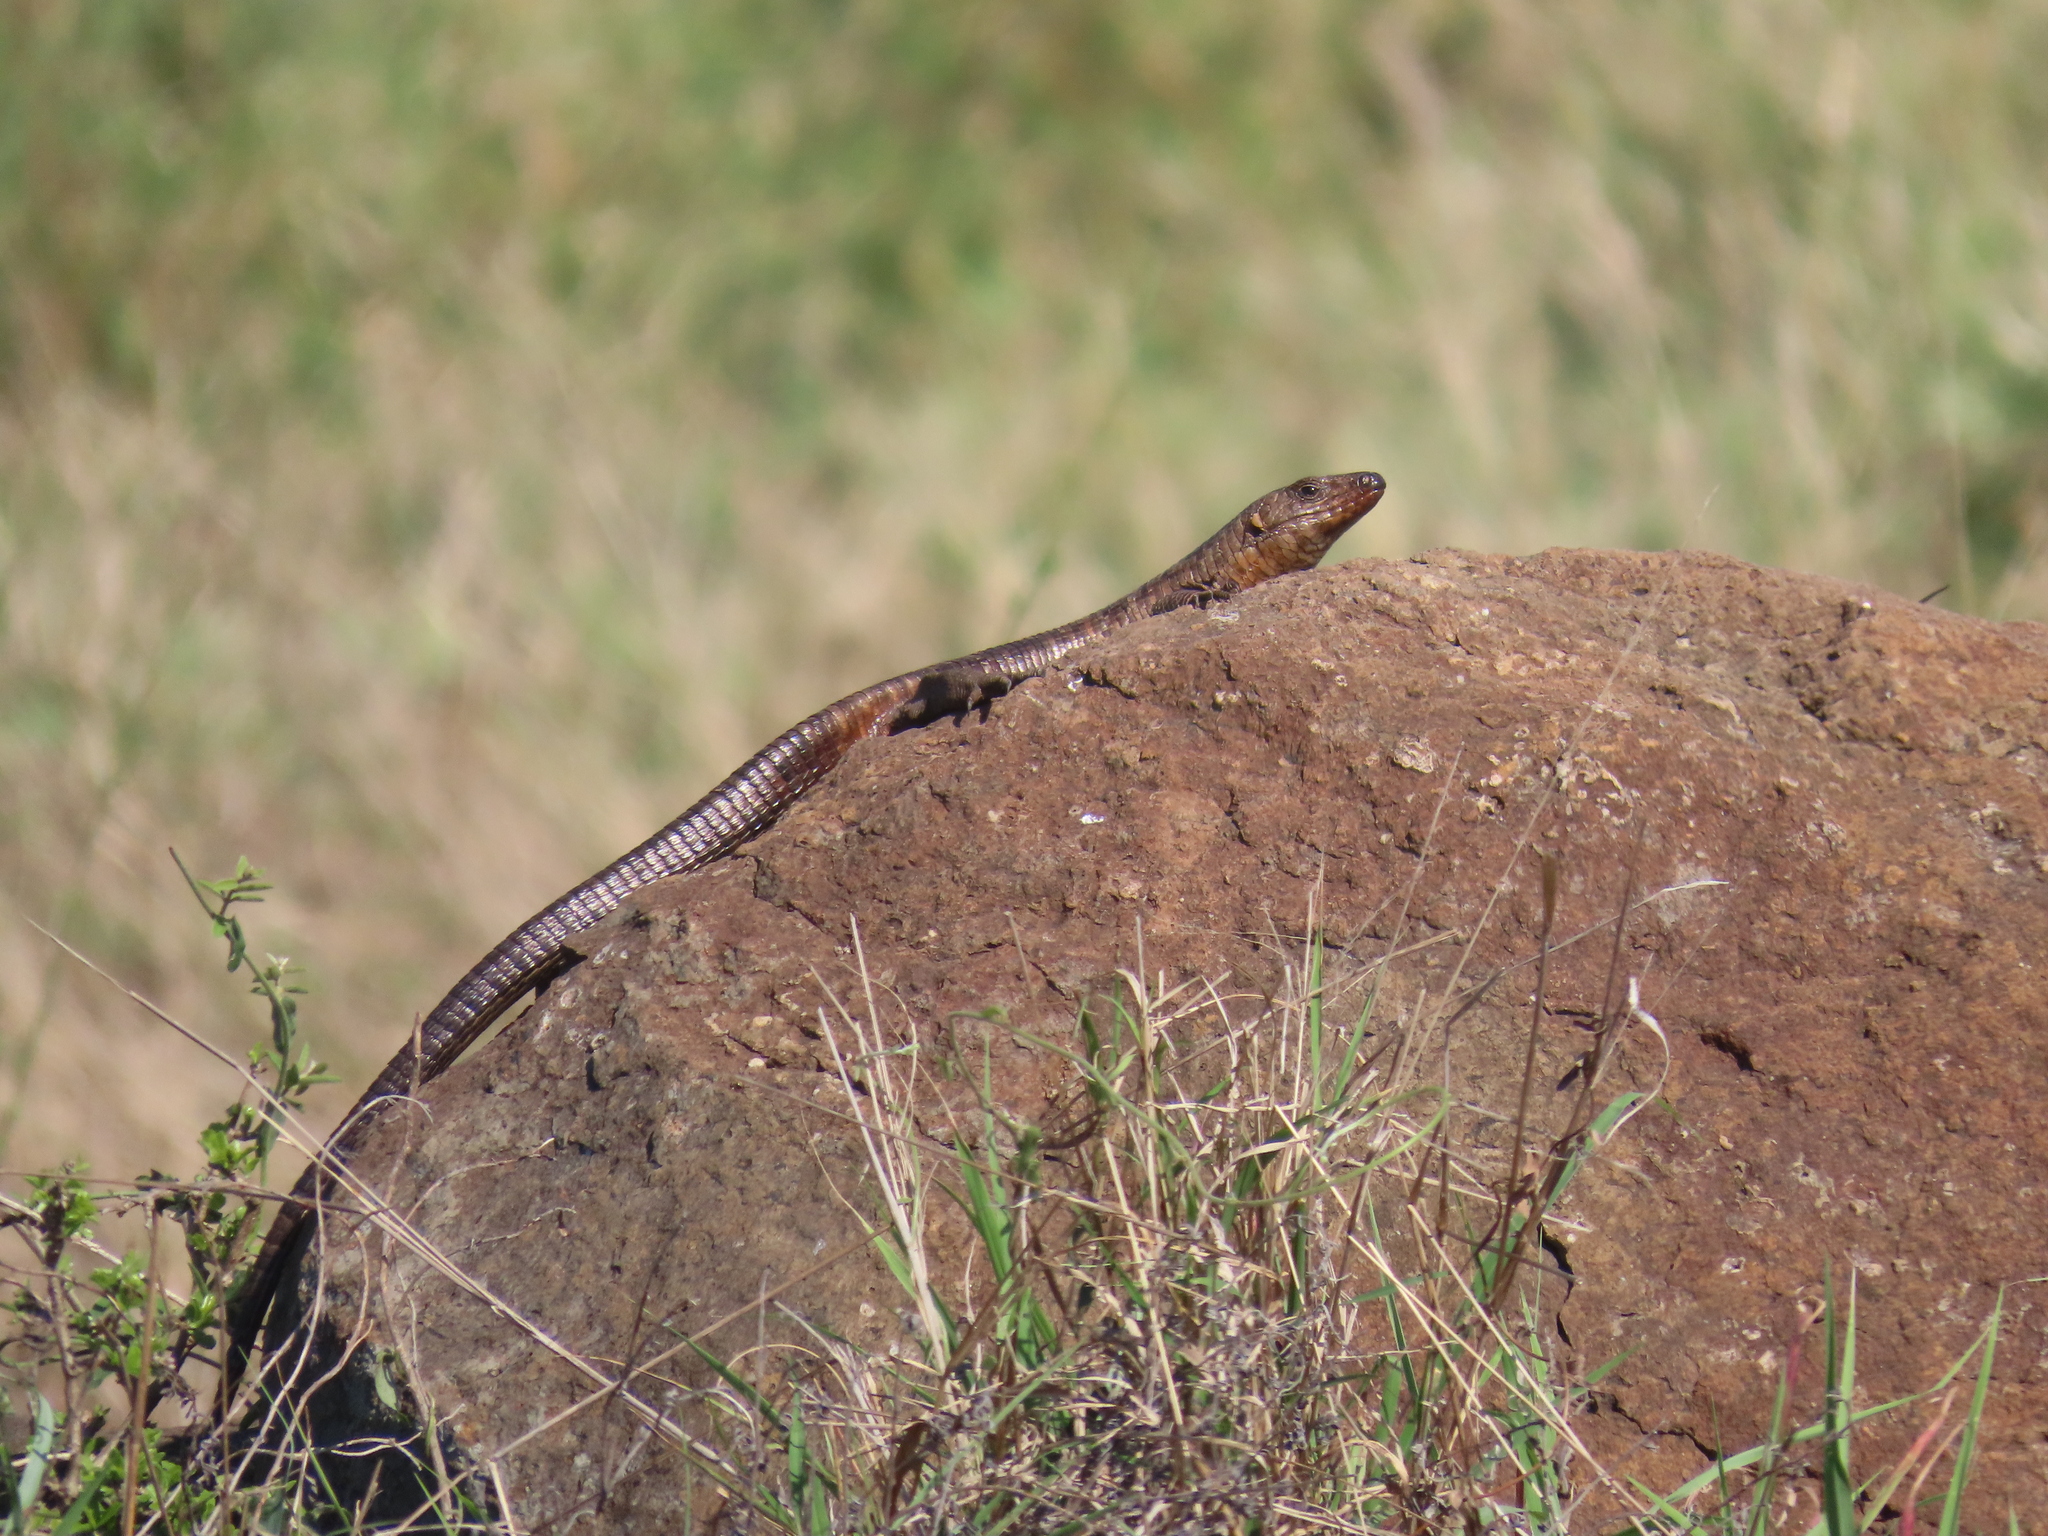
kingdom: Animalia
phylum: Chordata
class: Squamata
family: Gerrhosauridae
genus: Matobosaurus
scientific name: Matobosaurus validus
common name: Common giant plated lizard
